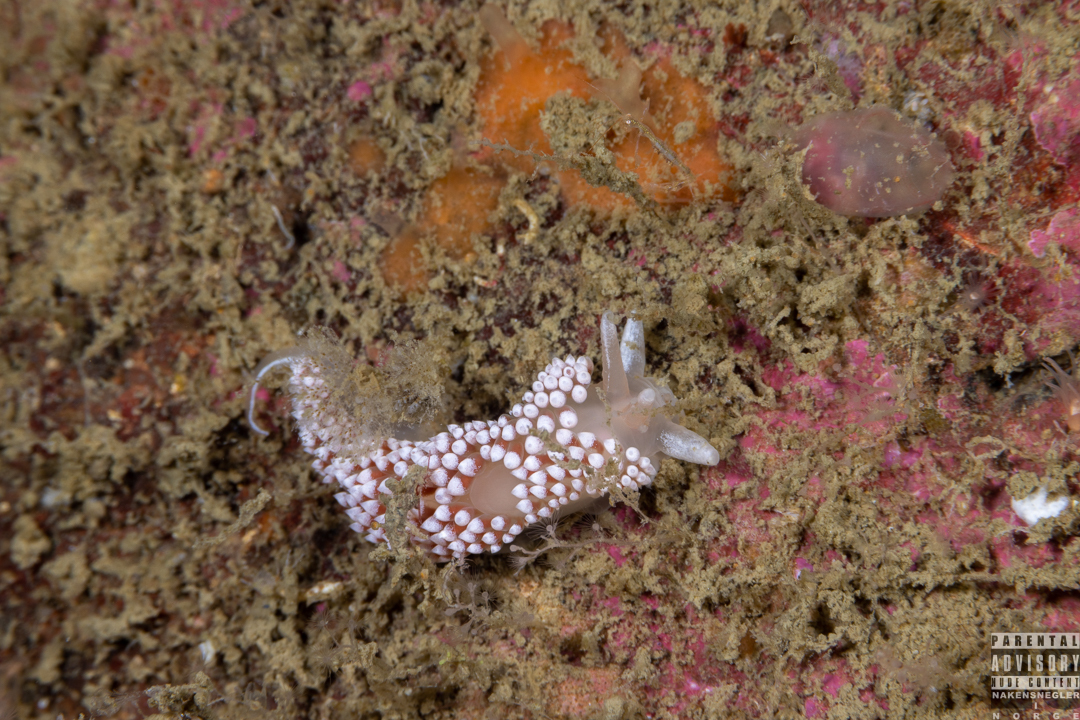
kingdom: Animalia
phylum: Mollusca
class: Gastropoda
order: Nudibranchia
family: Coryphellidae
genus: Coryphella
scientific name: Coryphella verrucosa
